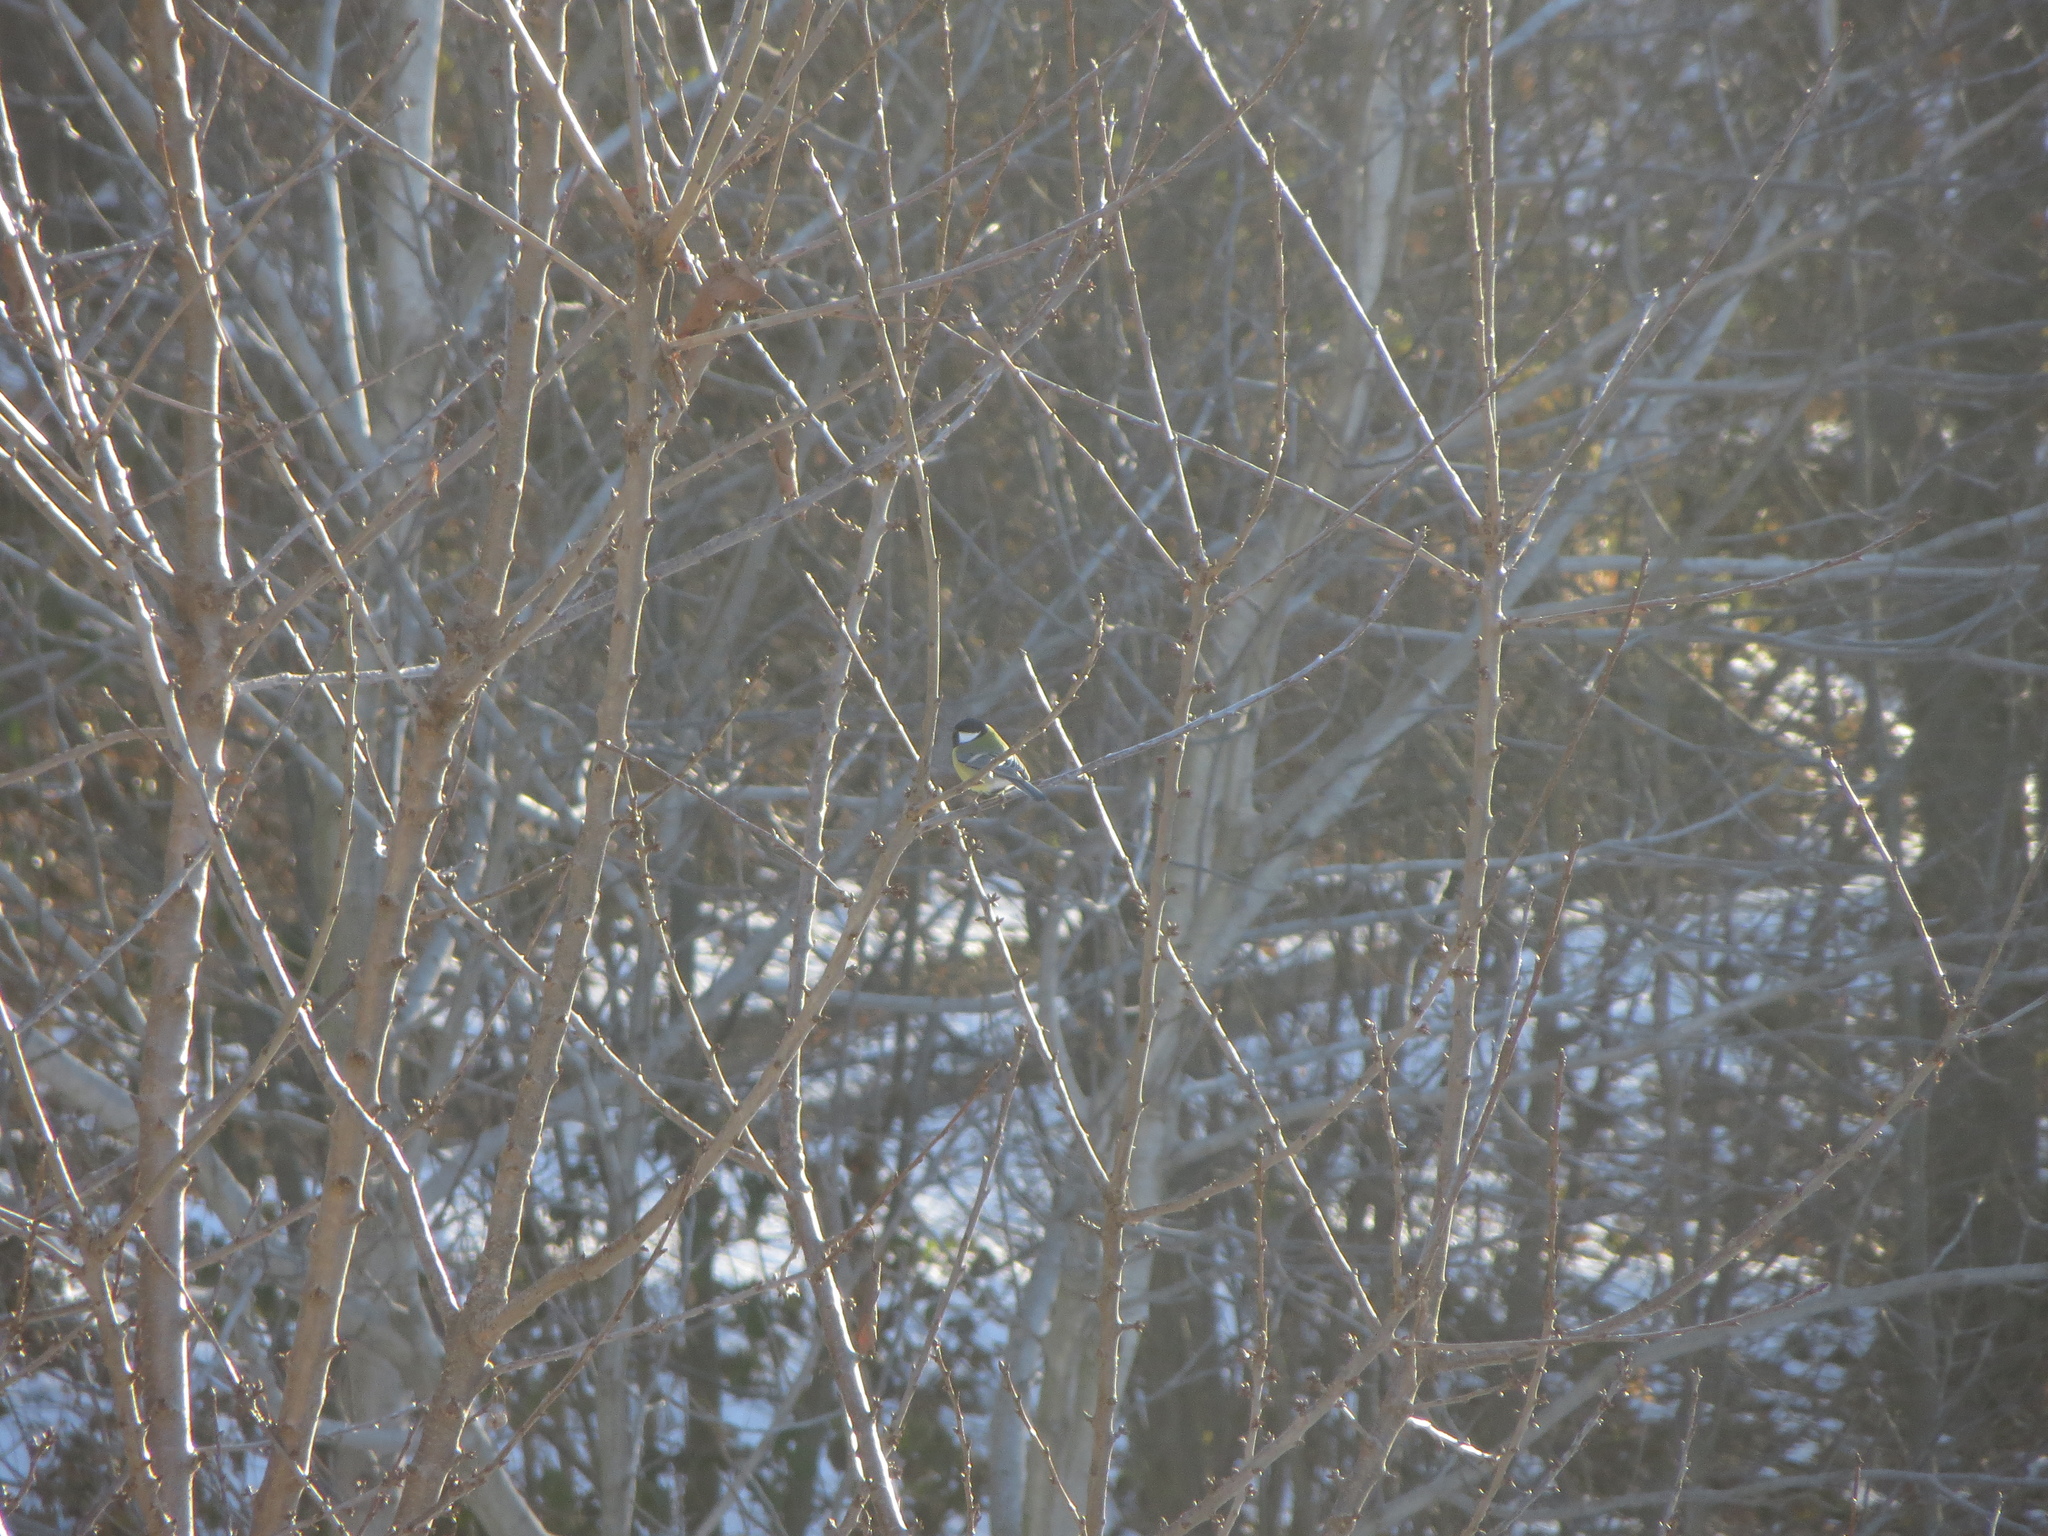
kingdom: Animalia
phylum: Chordata
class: Aves
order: Passeriformes
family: Paridae
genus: Parus
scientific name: Parus major
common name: Great tit
